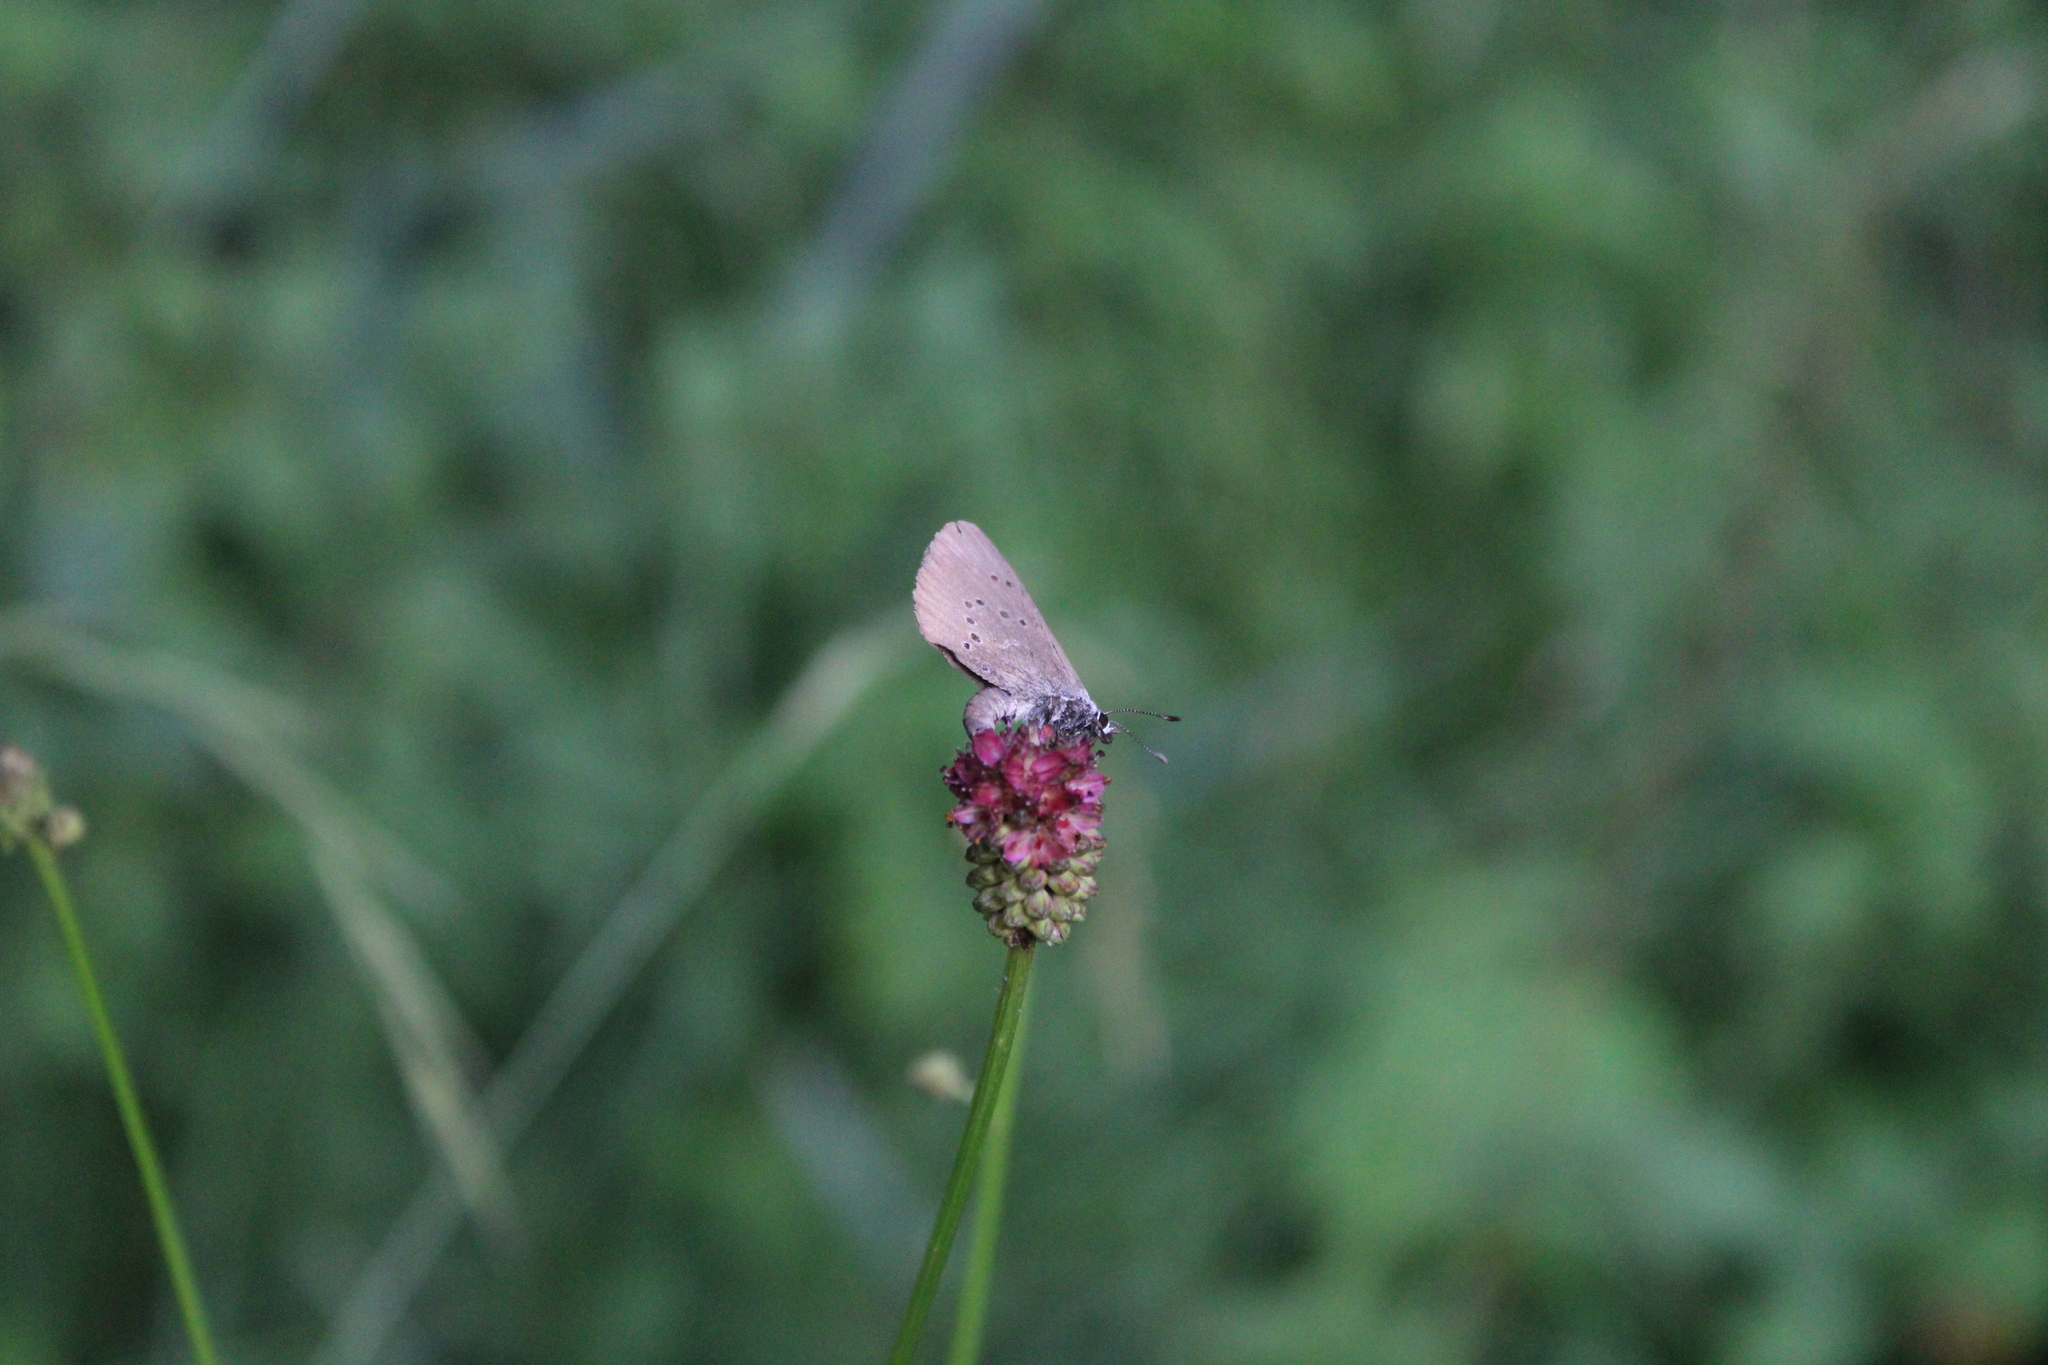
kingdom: Animalia
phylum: Arthropoda
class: Insecta
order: Lepidoptera
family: Lycaenidae
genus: Maculinea
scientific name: Maculinea nausithous
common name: Dusky large blue
